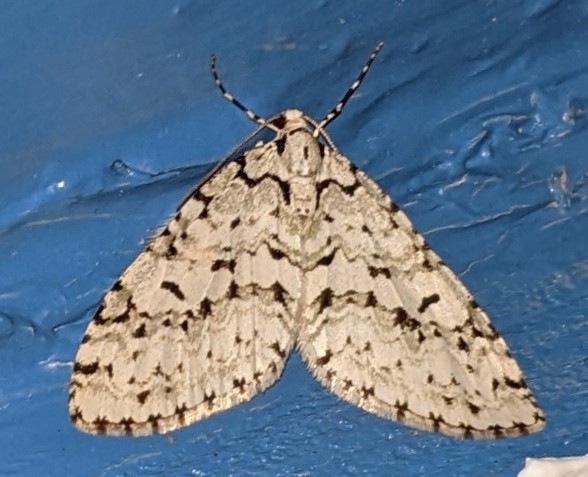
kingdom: Animalia
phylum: Arthropoda
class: Insecta
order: Lepidoptera
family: Geometridae
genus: Cladara
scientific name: Cladara atroliturata
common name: Scribbler
